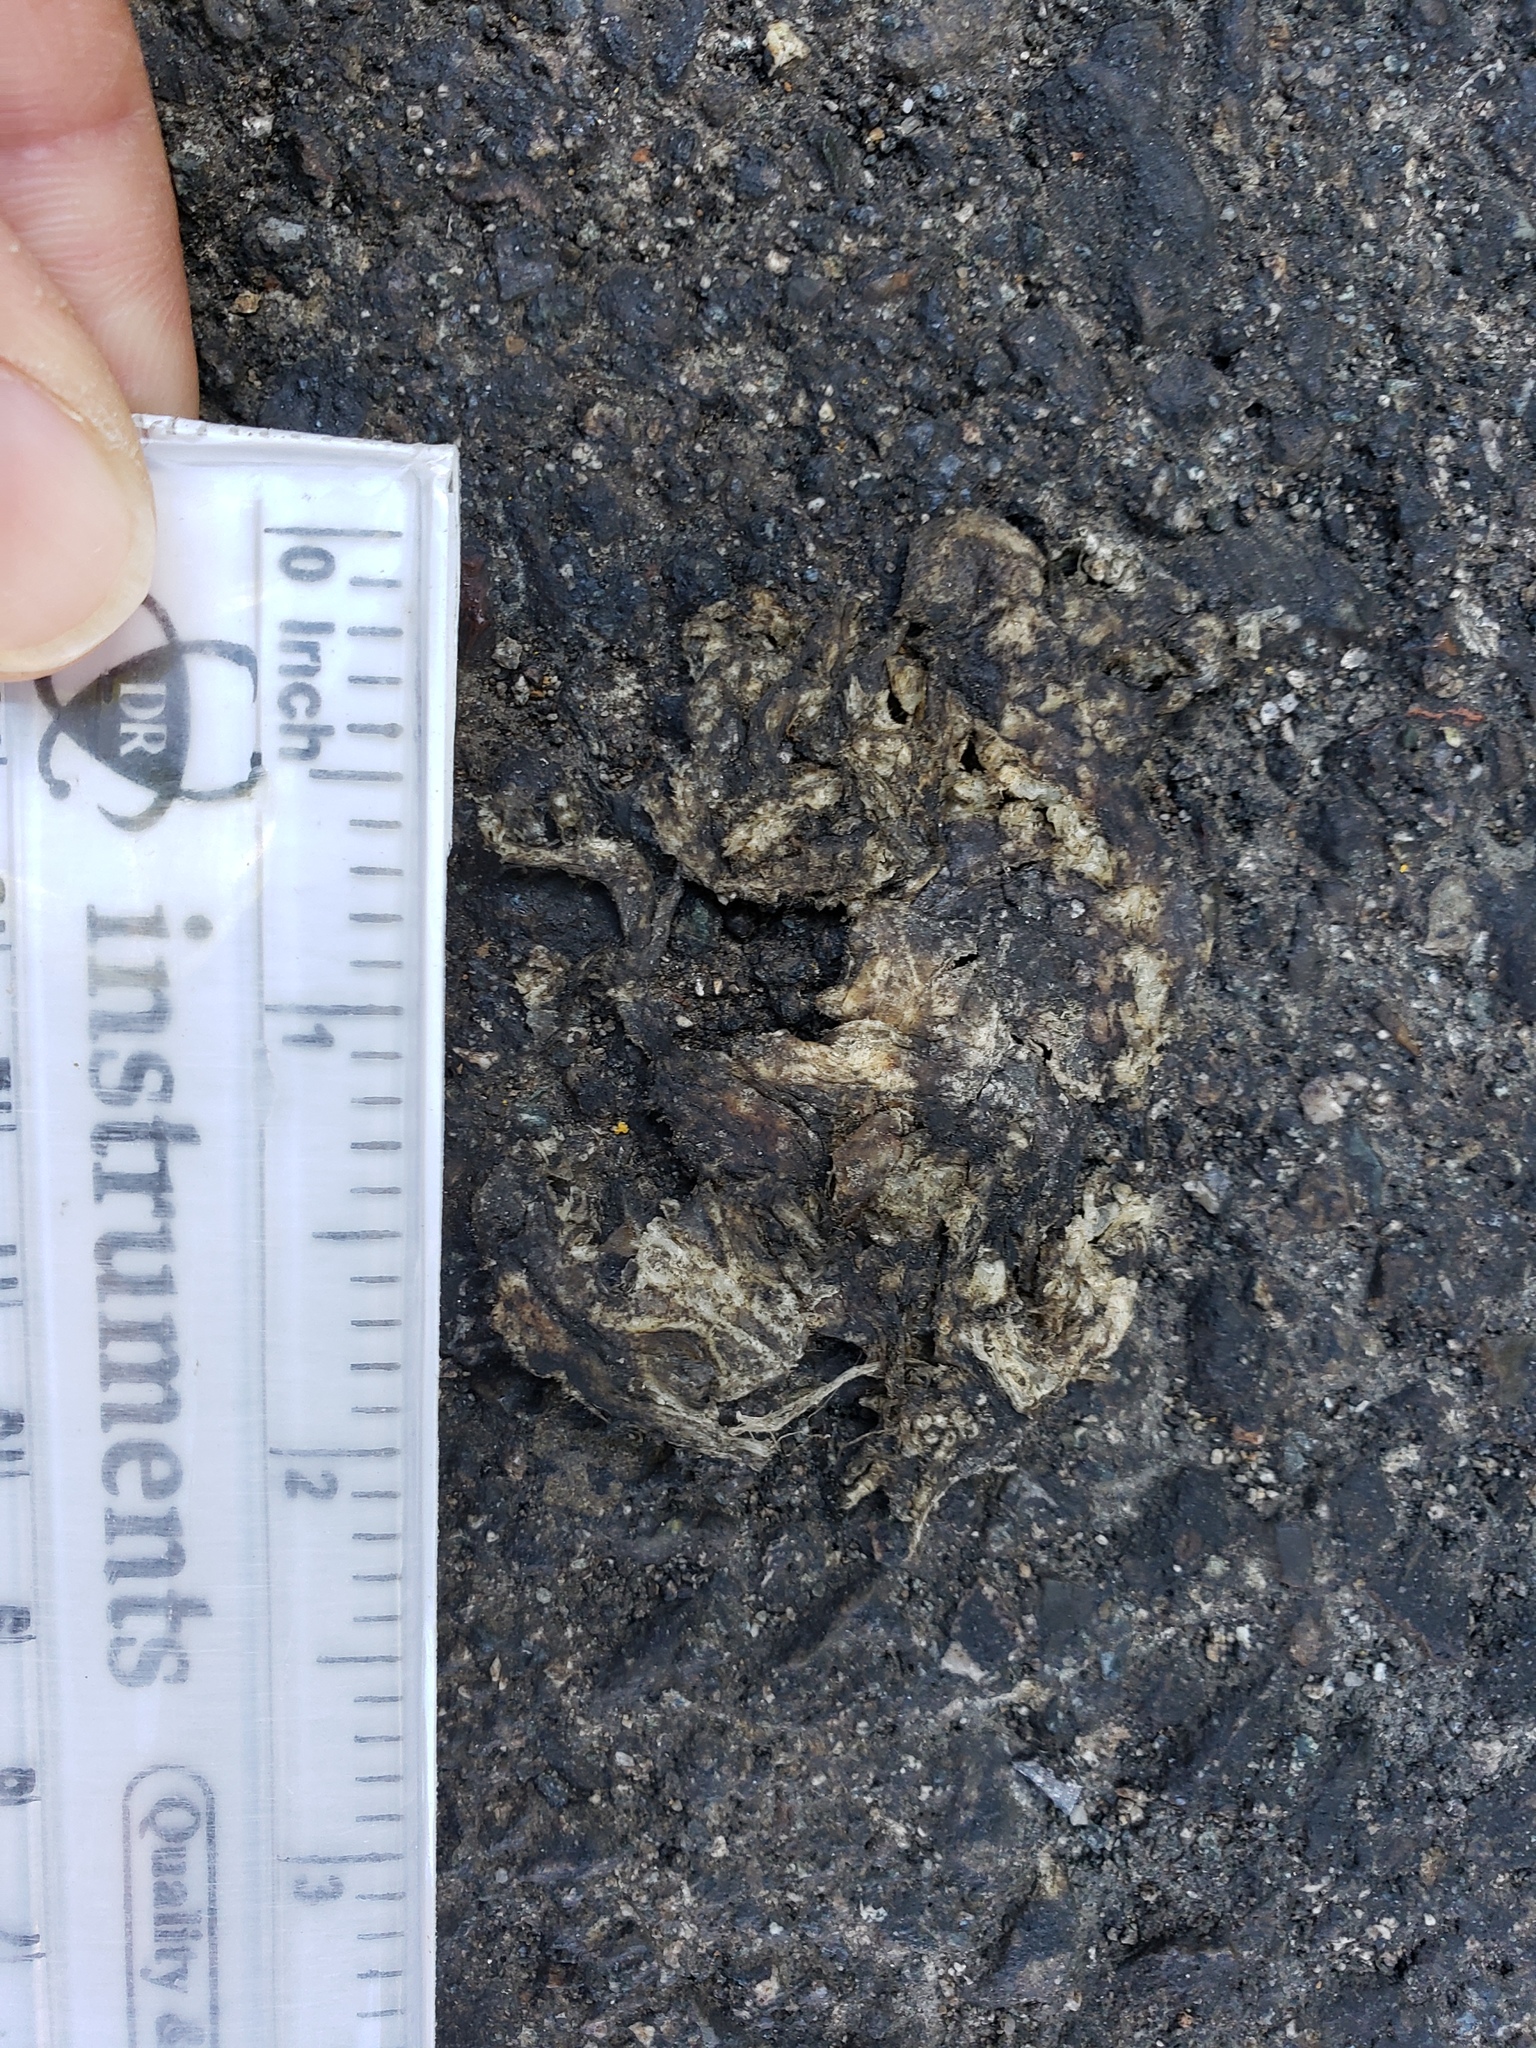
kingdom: Animalia
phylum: Chordata
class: Amphibia
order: Caudata
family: Salamandridae
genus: Taricha
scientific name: Taricha
